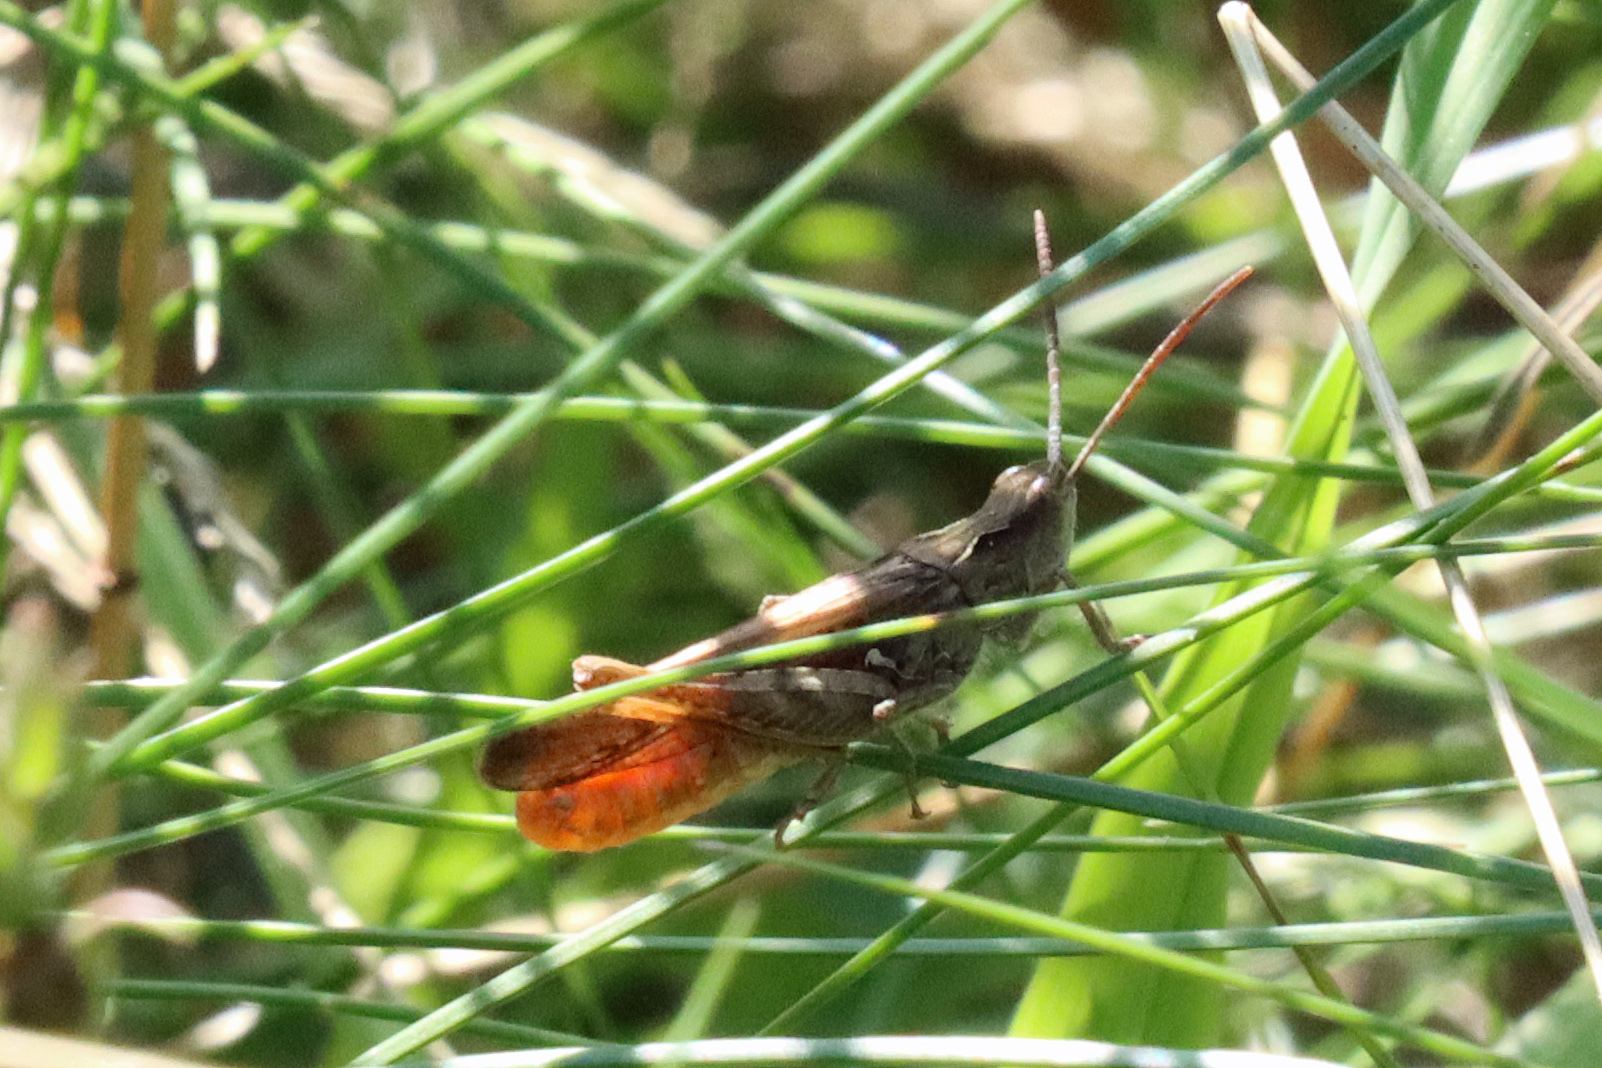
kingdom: Animalia
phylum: Arthropoda
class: Insecta
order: Orthoptera
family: Acrididae
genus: Chorthippus
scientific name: Chorthippus brunneus
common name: Field grasshopper
